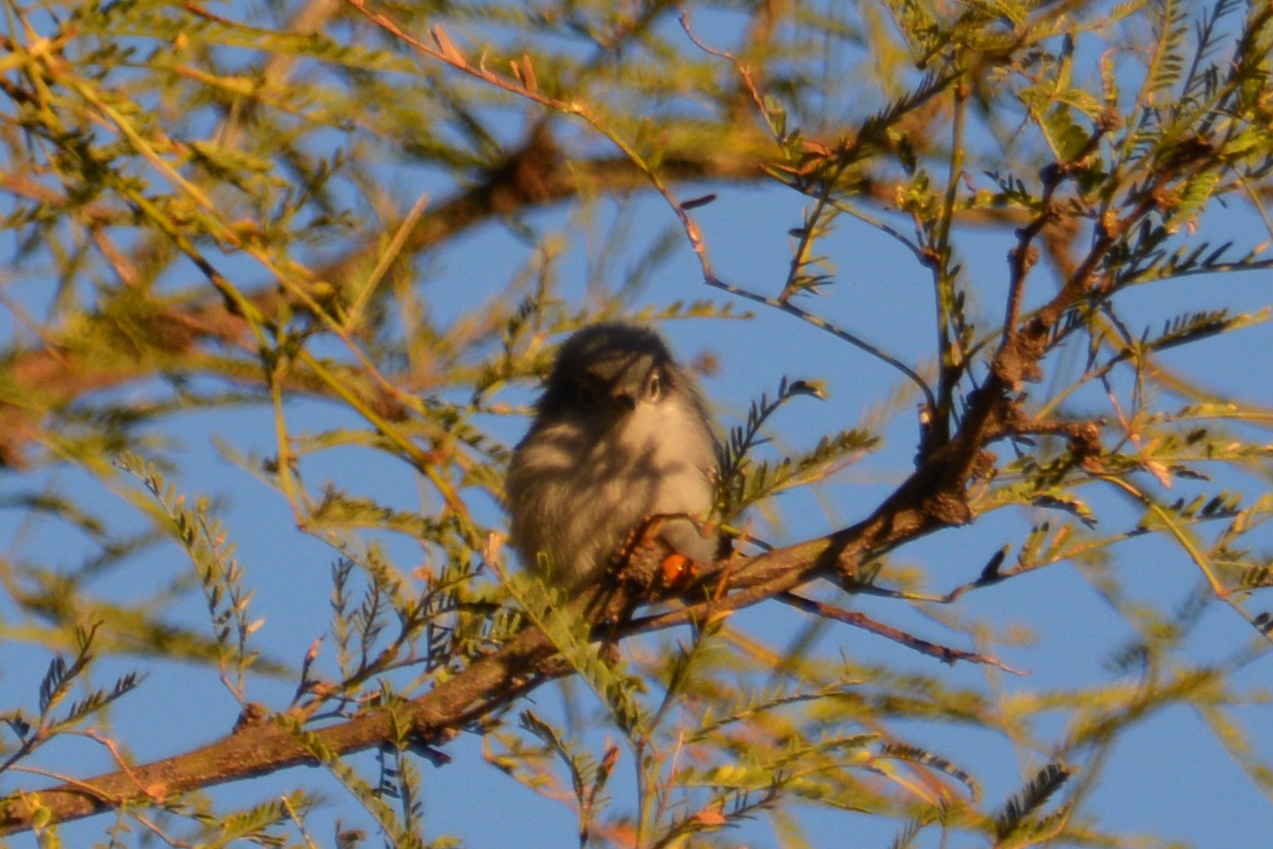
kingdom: Animalia
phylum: Chordata
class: Aves
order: Passeriformes
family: Polioptilidae
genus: Polioptila
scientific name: Polioptila dumicola
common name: Masked gnatcatcher
